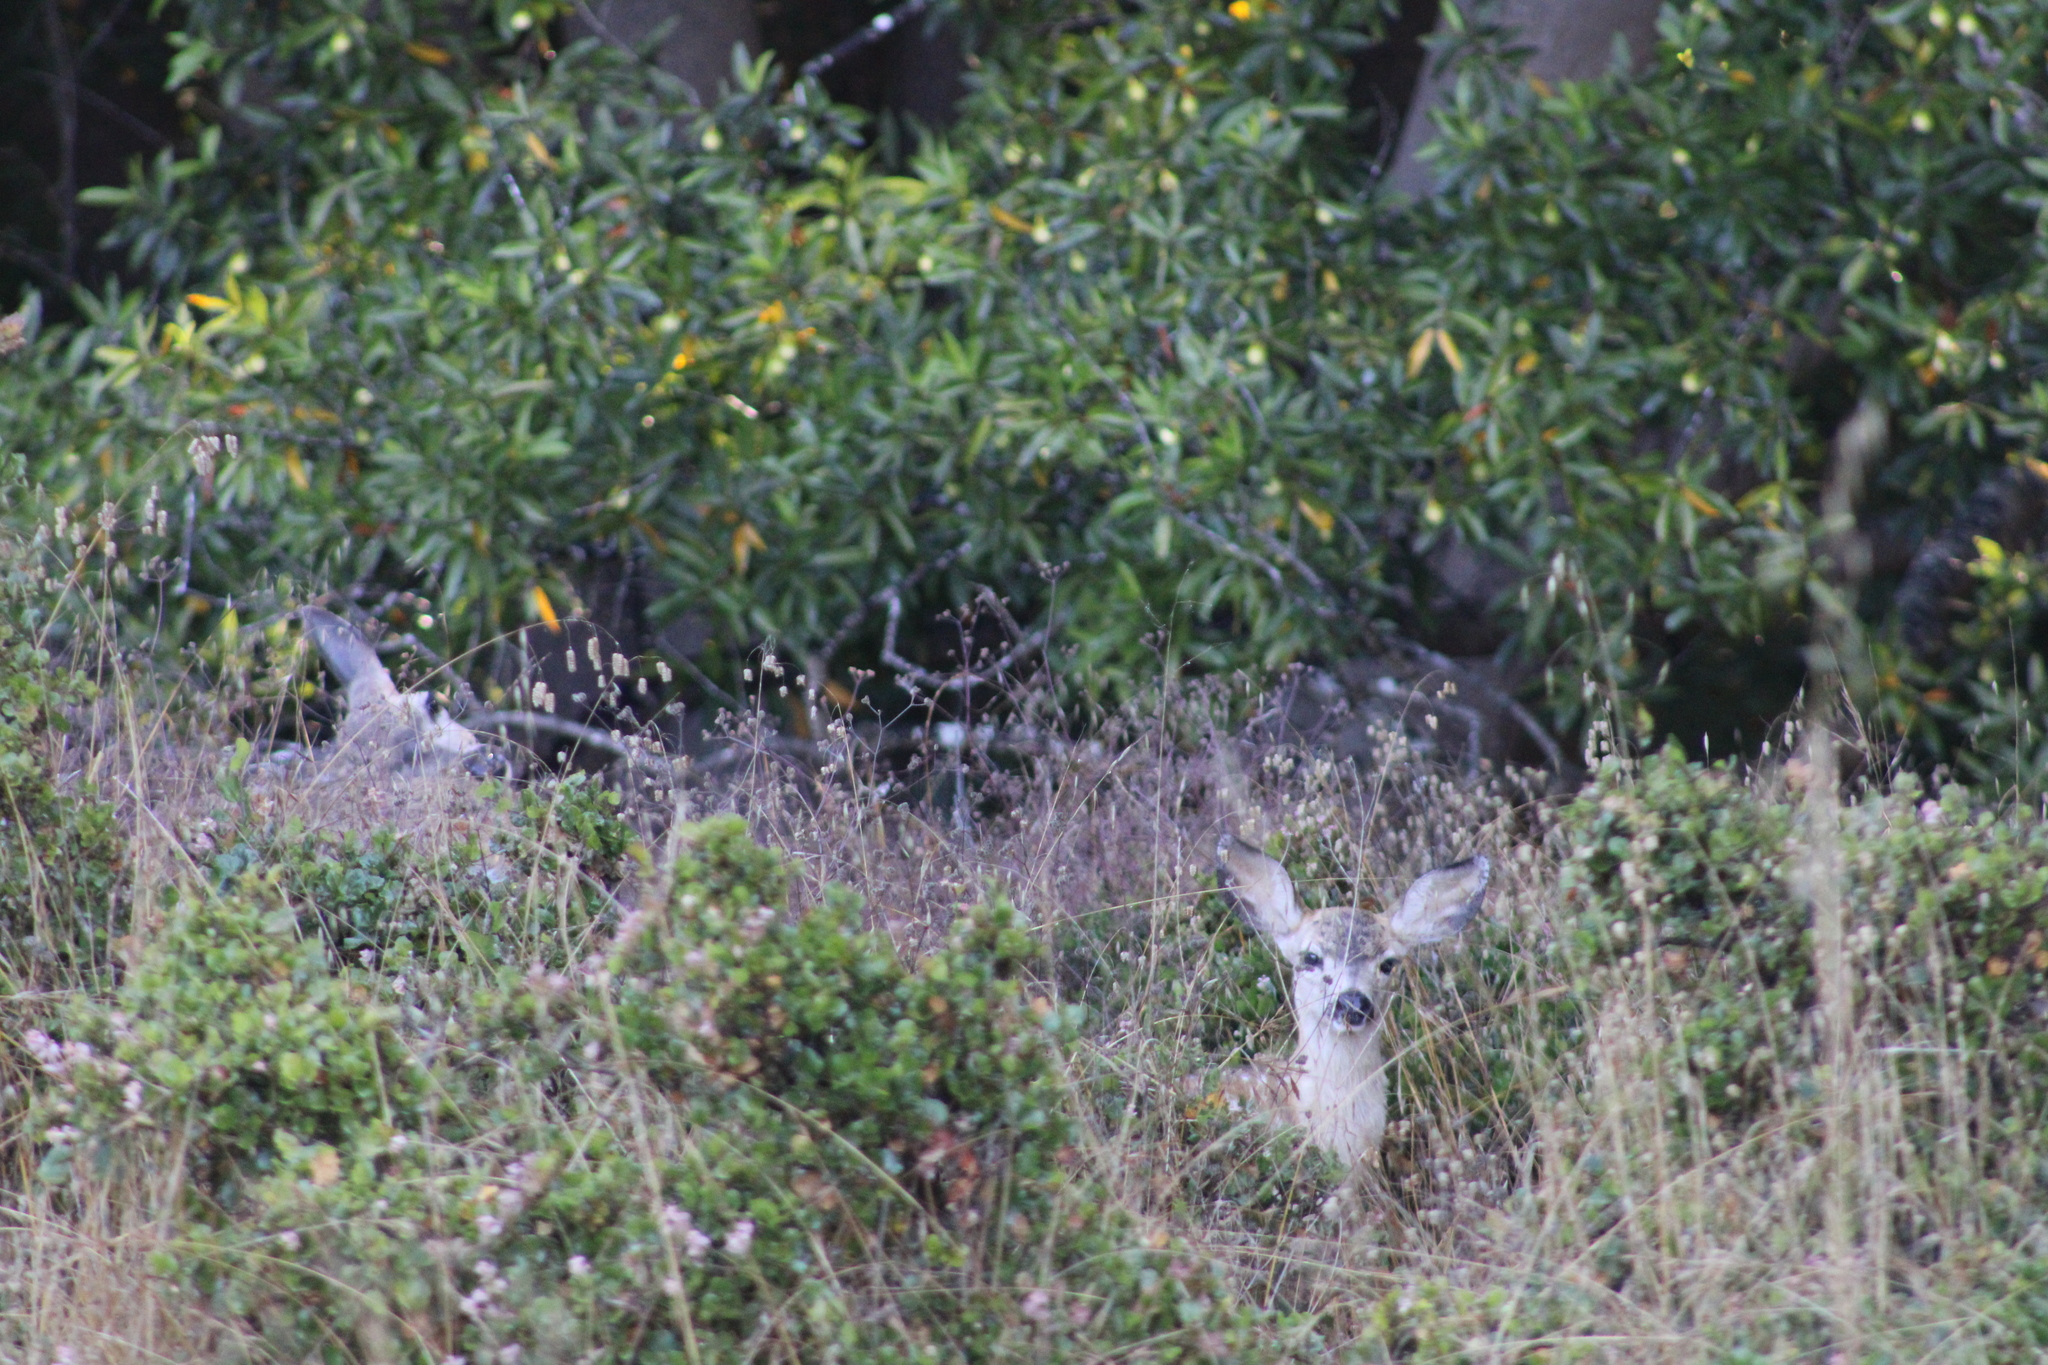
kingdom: Animalia
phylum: Chordata
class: Mammalia
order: Artiodactyla
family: Cervidae
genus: Odocoileus
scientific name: Odocoileus hemionus
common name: Mule deer
